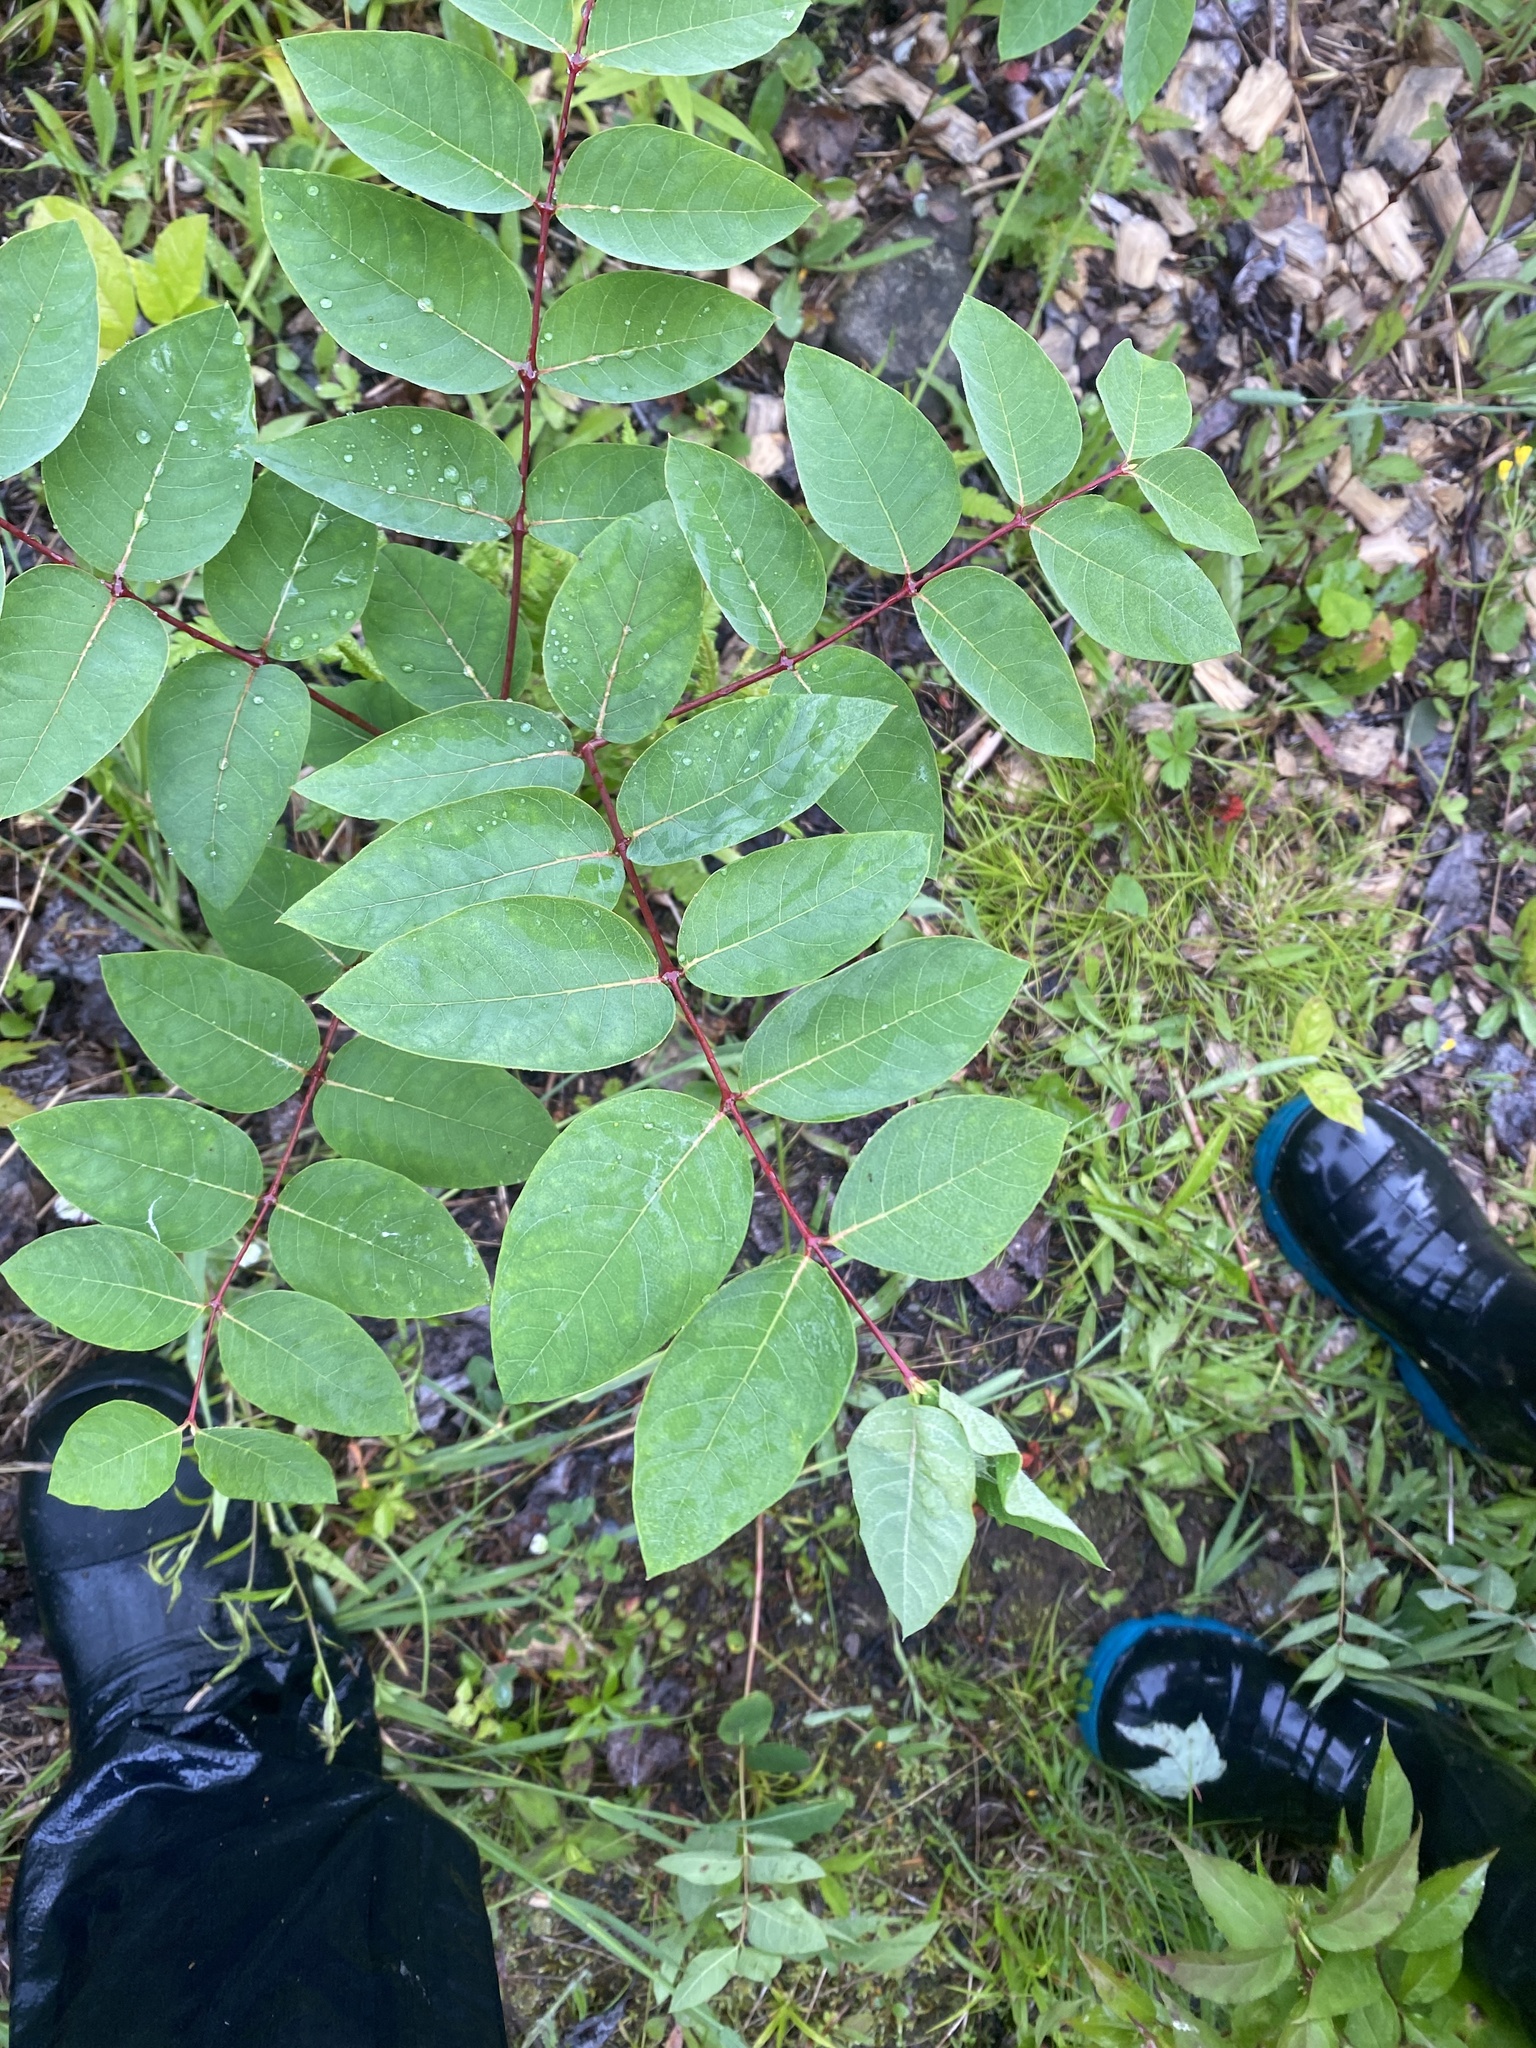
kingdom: Plantae
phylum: Tracheophyta
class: Magnoliopsida
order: Gentianales
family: Apocynaceae
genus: Apocynum
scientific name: Apocynum androsaemifolium
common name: Spreading dogbane
